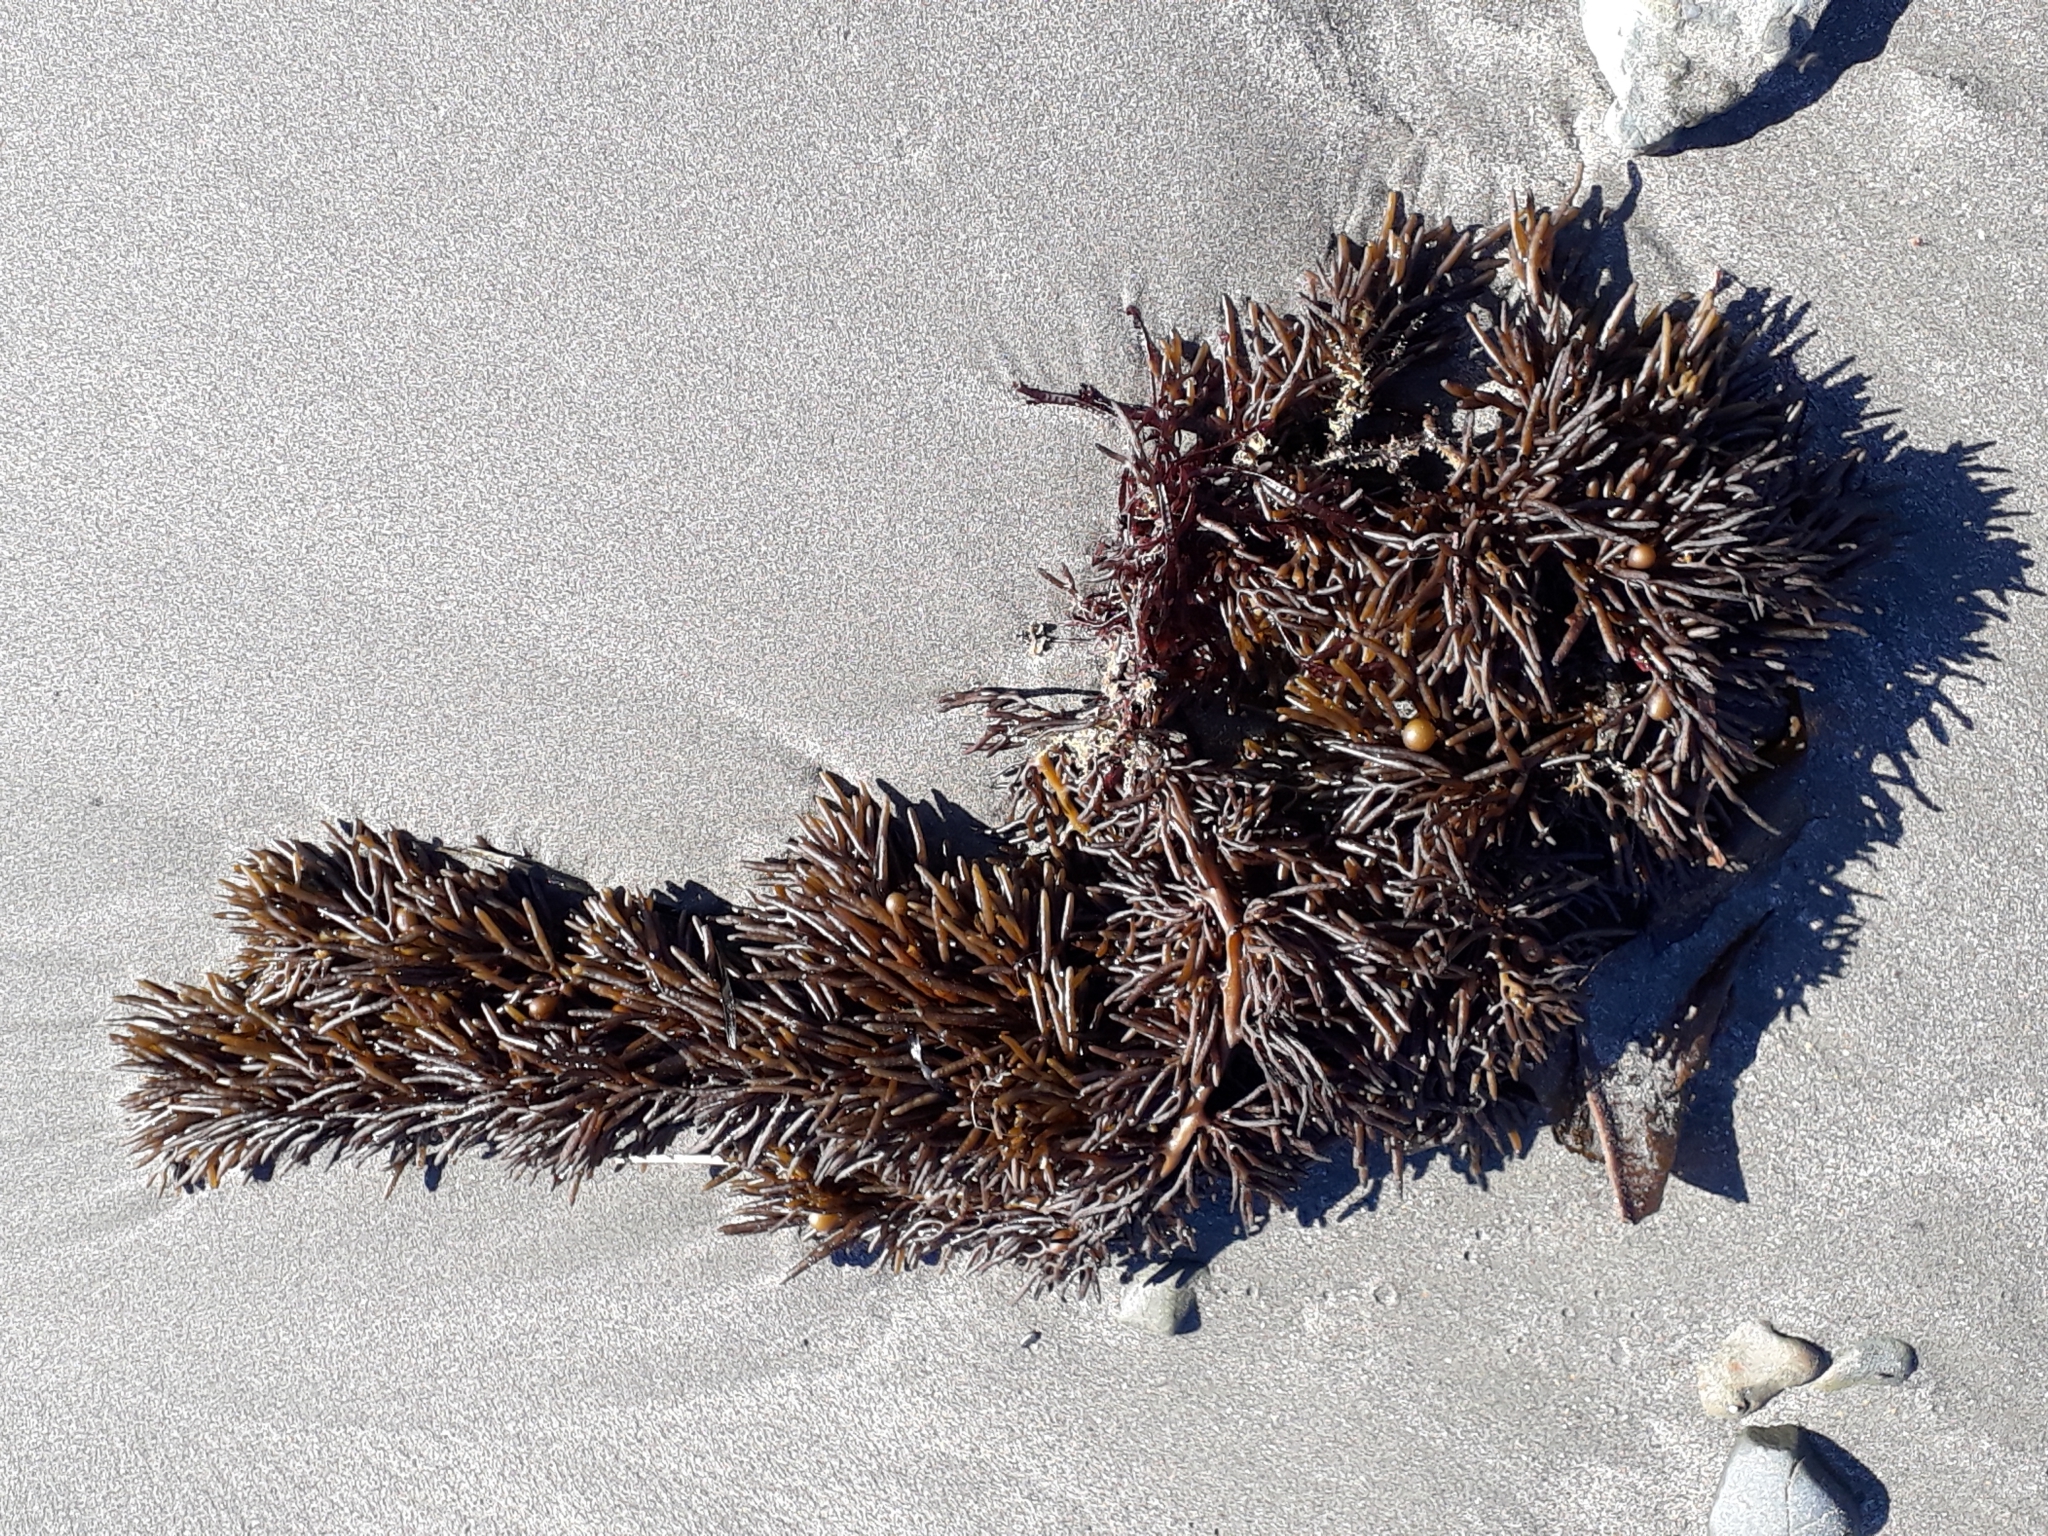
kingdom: Chromista
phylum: Ochrophyta
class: Phaeophyceae
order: Fucales
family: Sargassaceae
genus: Cystophora
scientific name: Cystophora torulosa
